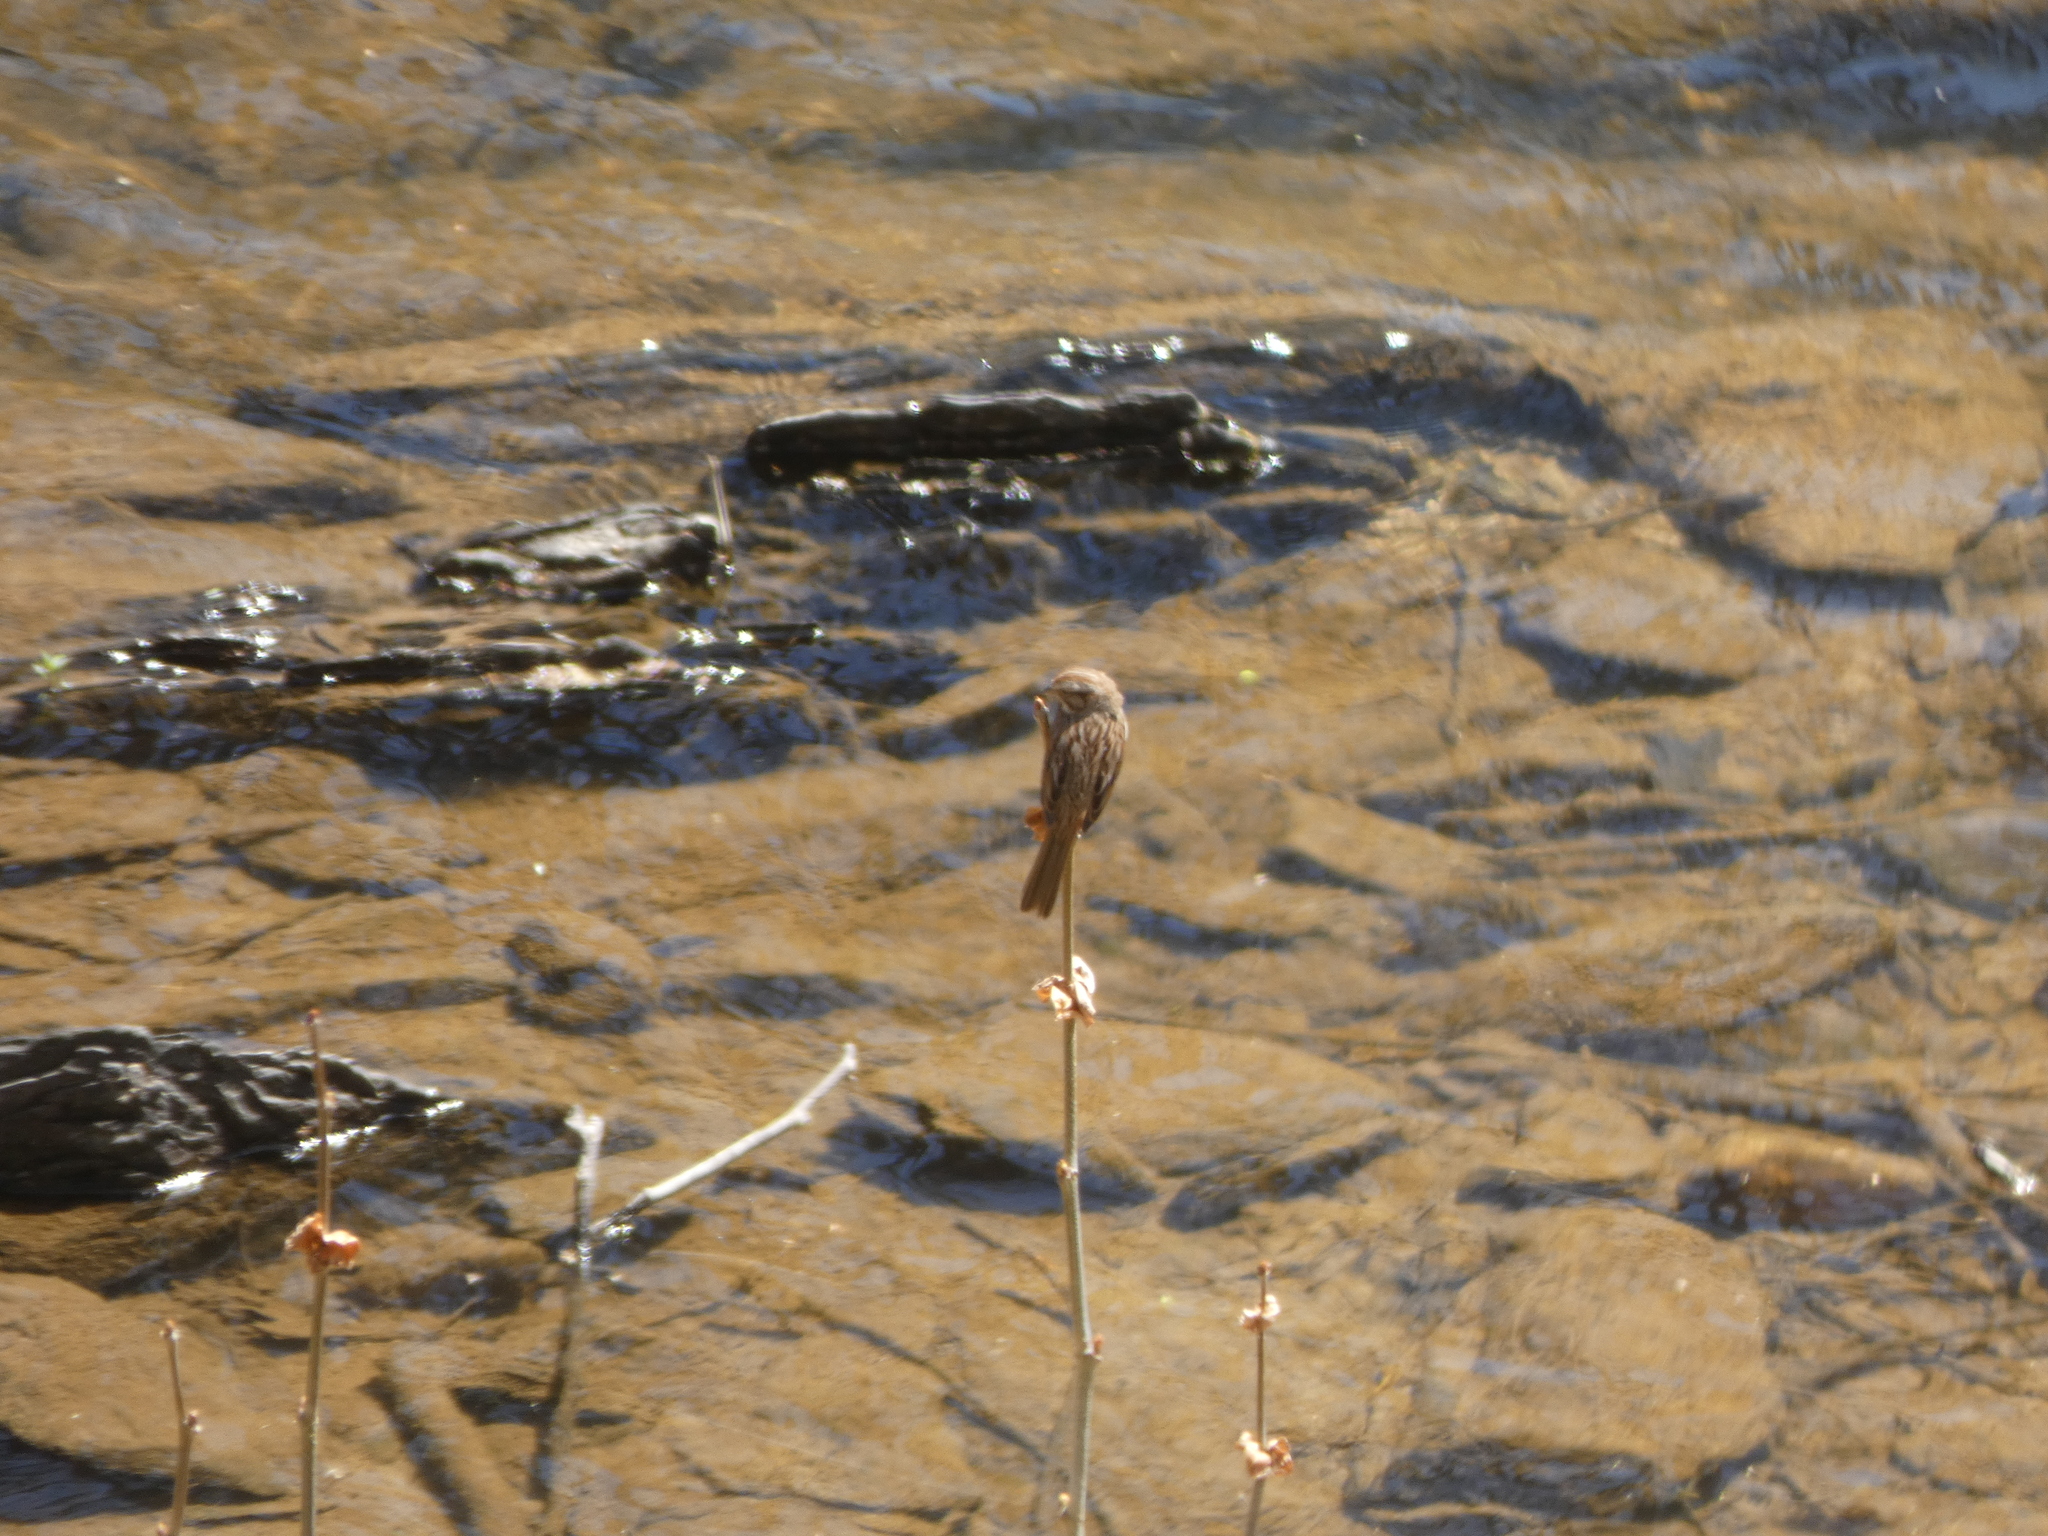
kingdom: Animalia
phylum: Chordata
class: Aves
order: Passeriformes
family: Passerellidae
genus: Melospiza
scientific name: Melospiza melodia
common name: Song sparrow
